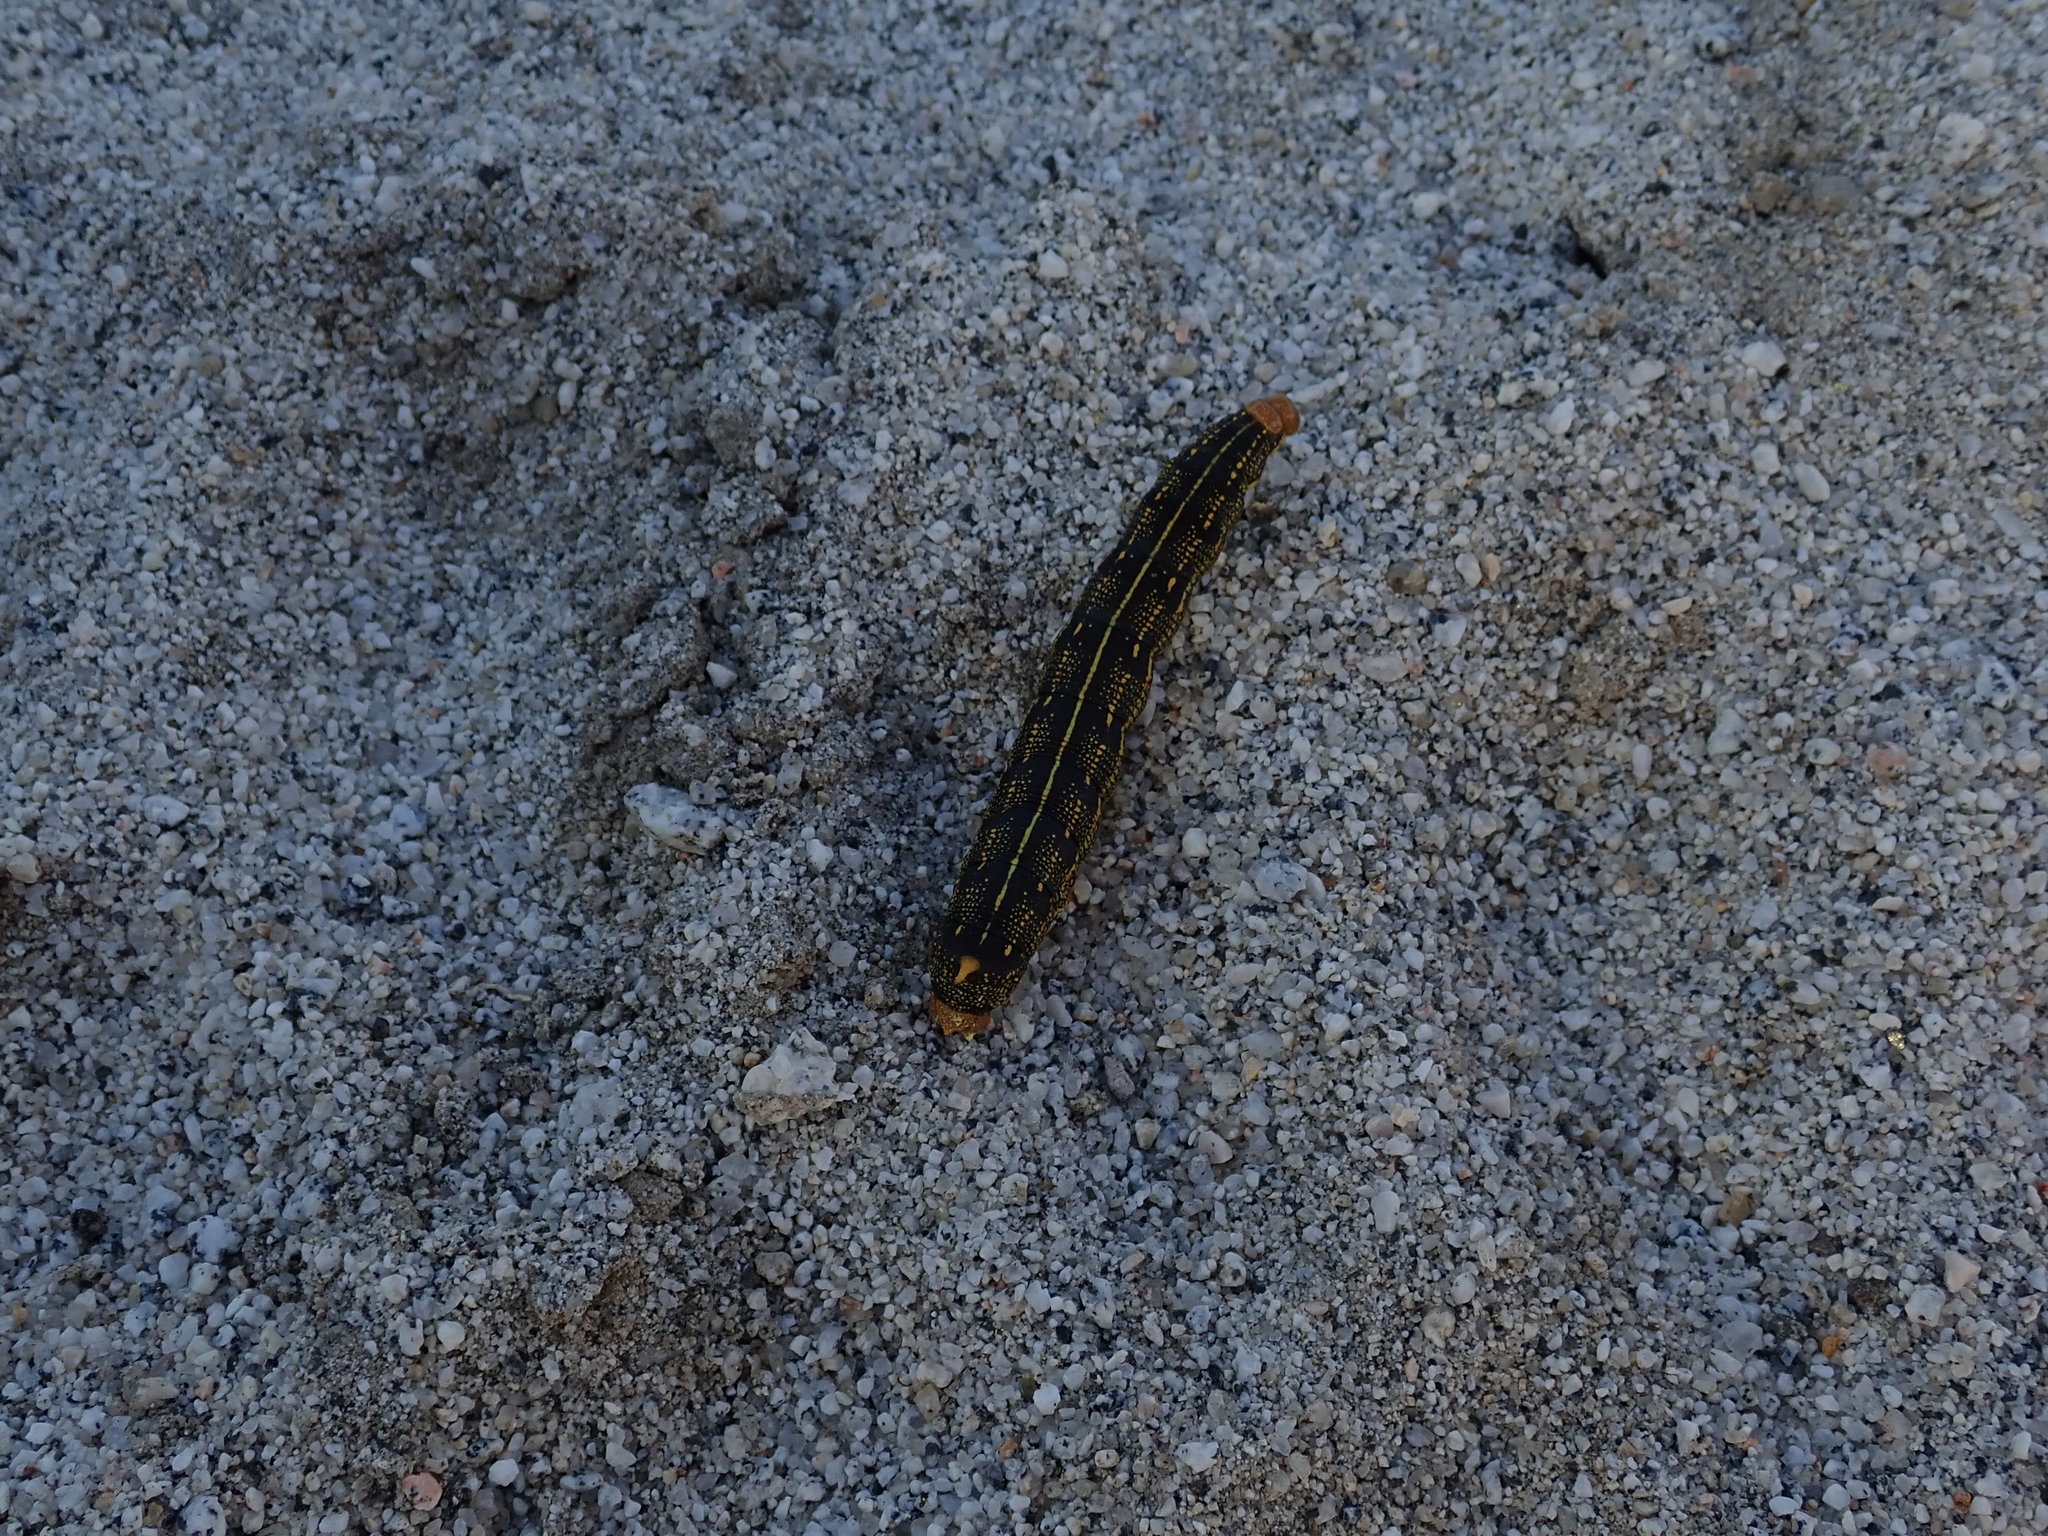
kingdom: Animalia
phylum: Arthropoda
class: Insecta
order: Lepidoptera
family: Sphingidae
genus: Hyles
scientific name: Hyles lineata
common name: White-lined sphinx
